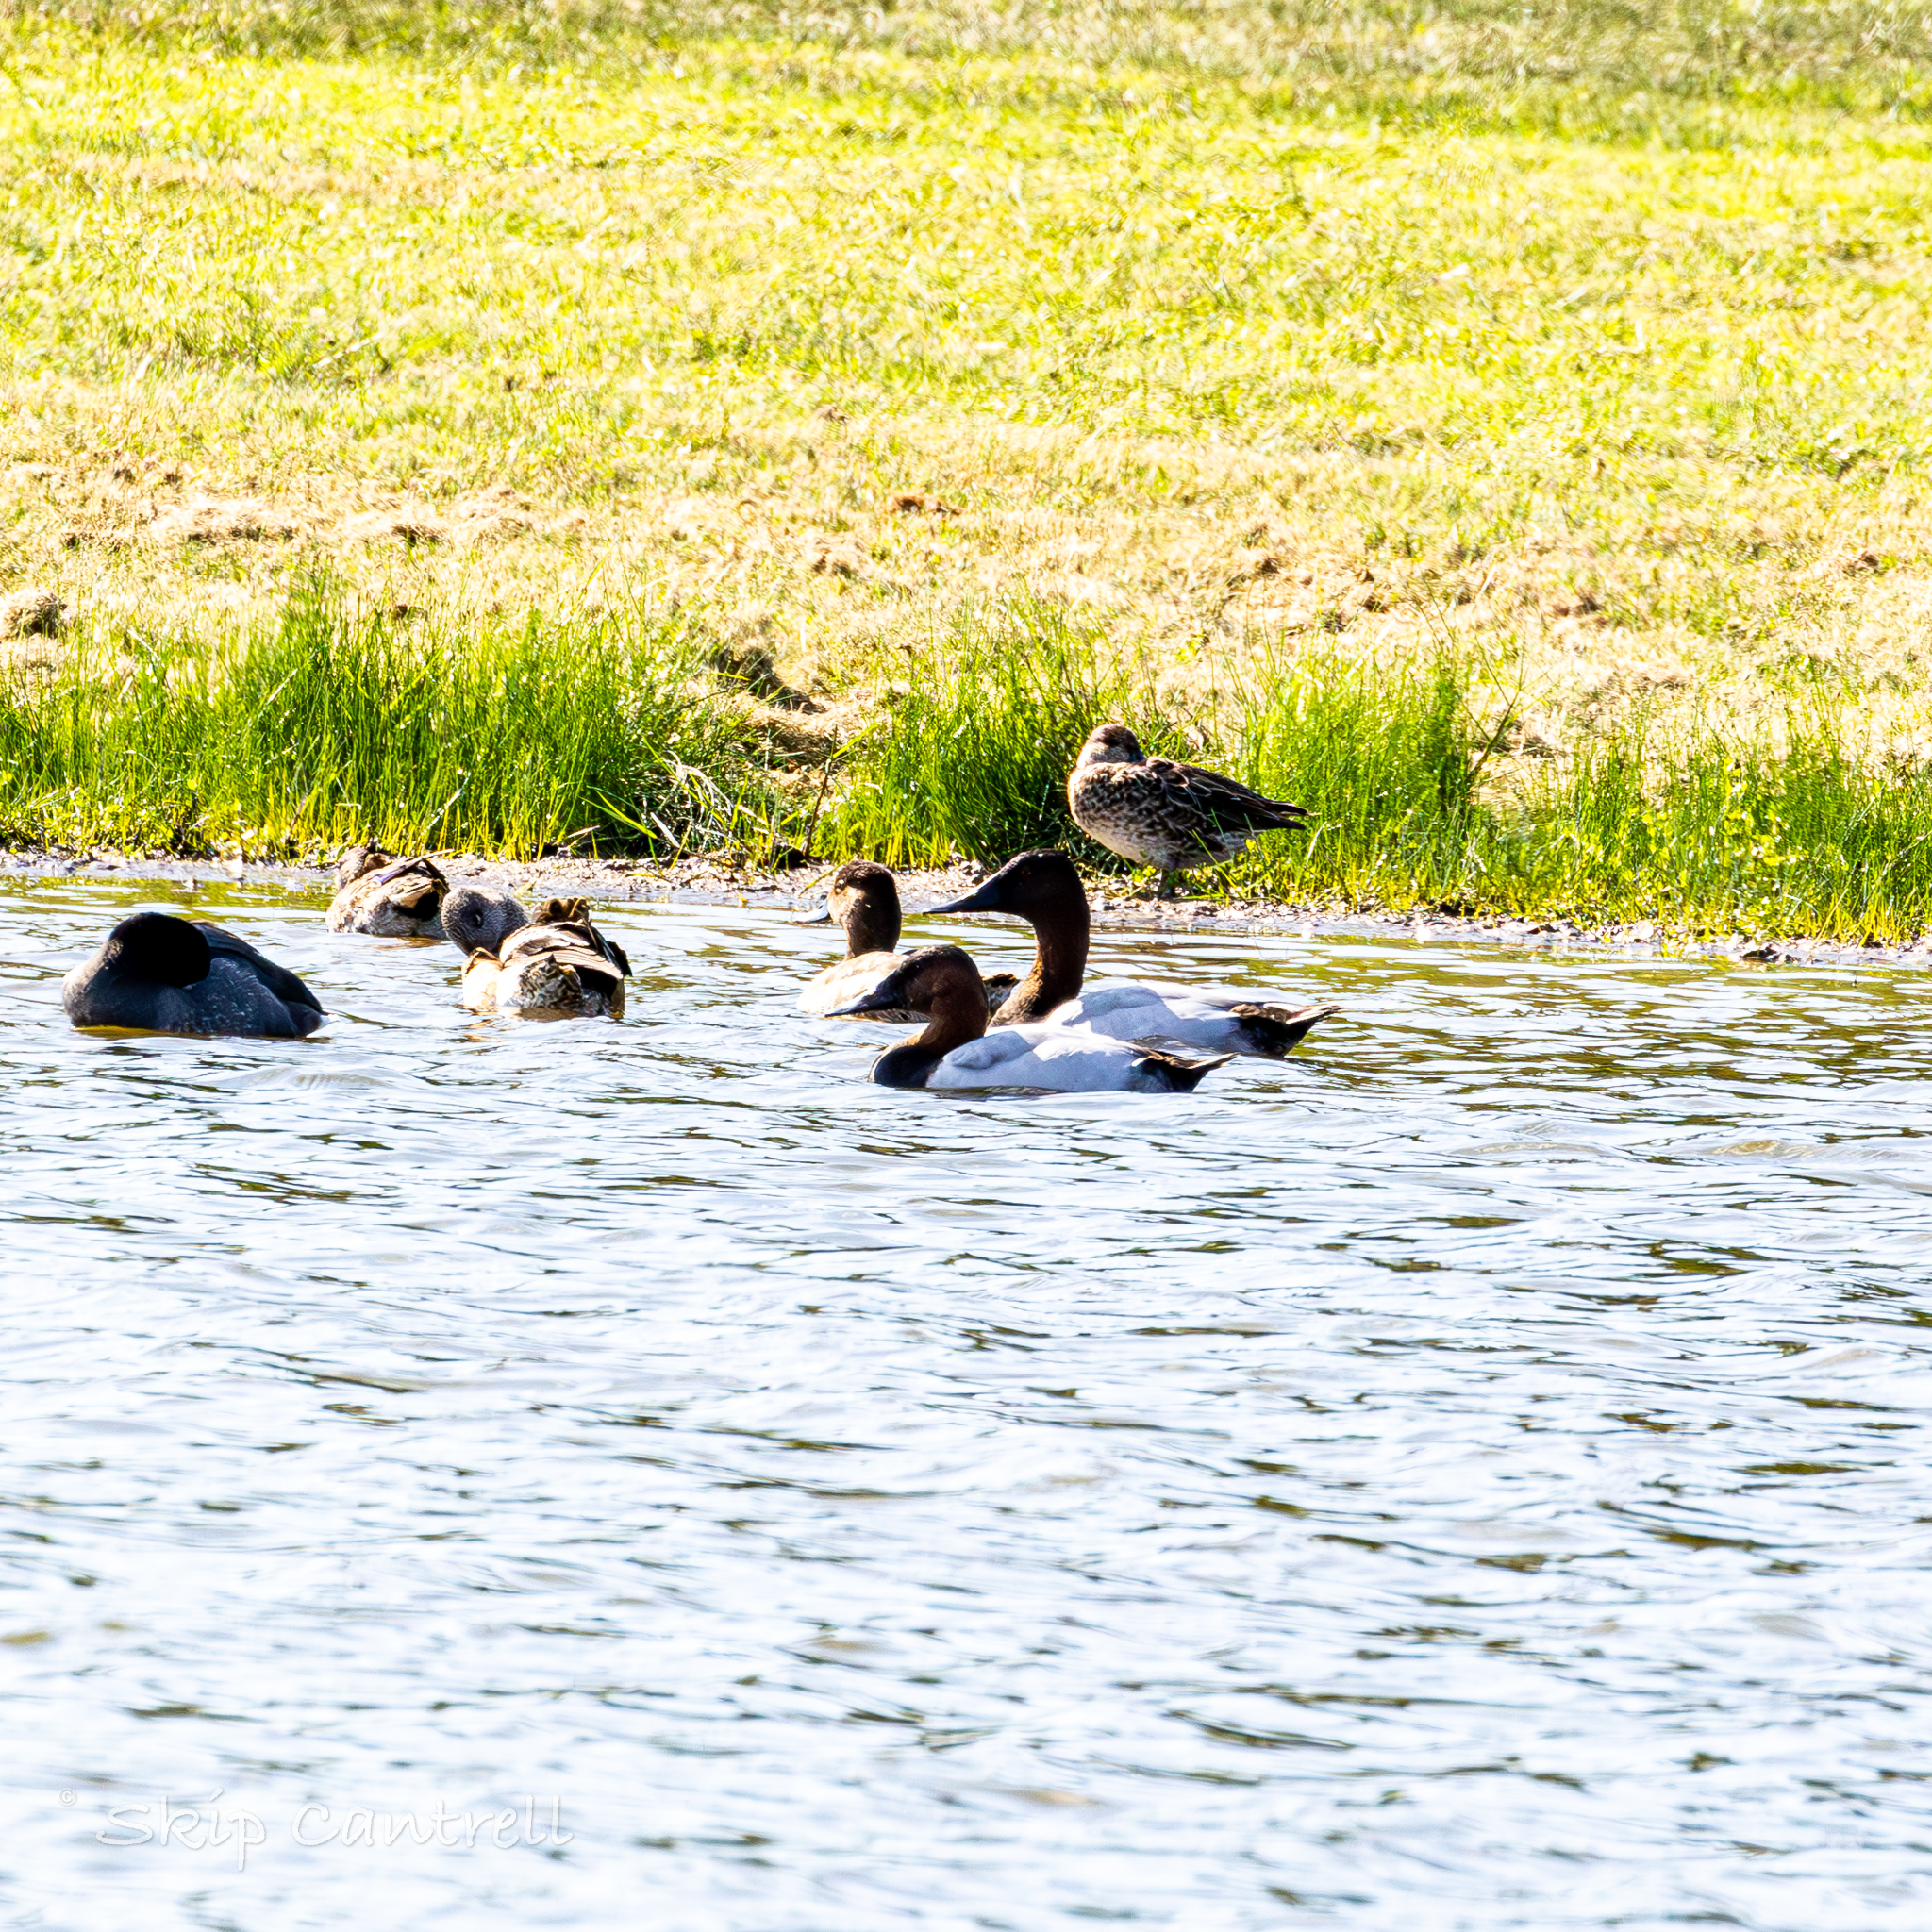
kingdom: Animalia
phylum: Chordata
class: Aves
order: Anseriformes
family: Anatidae
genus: Aythya
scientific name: Aythya valisineria
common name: Canvasback
